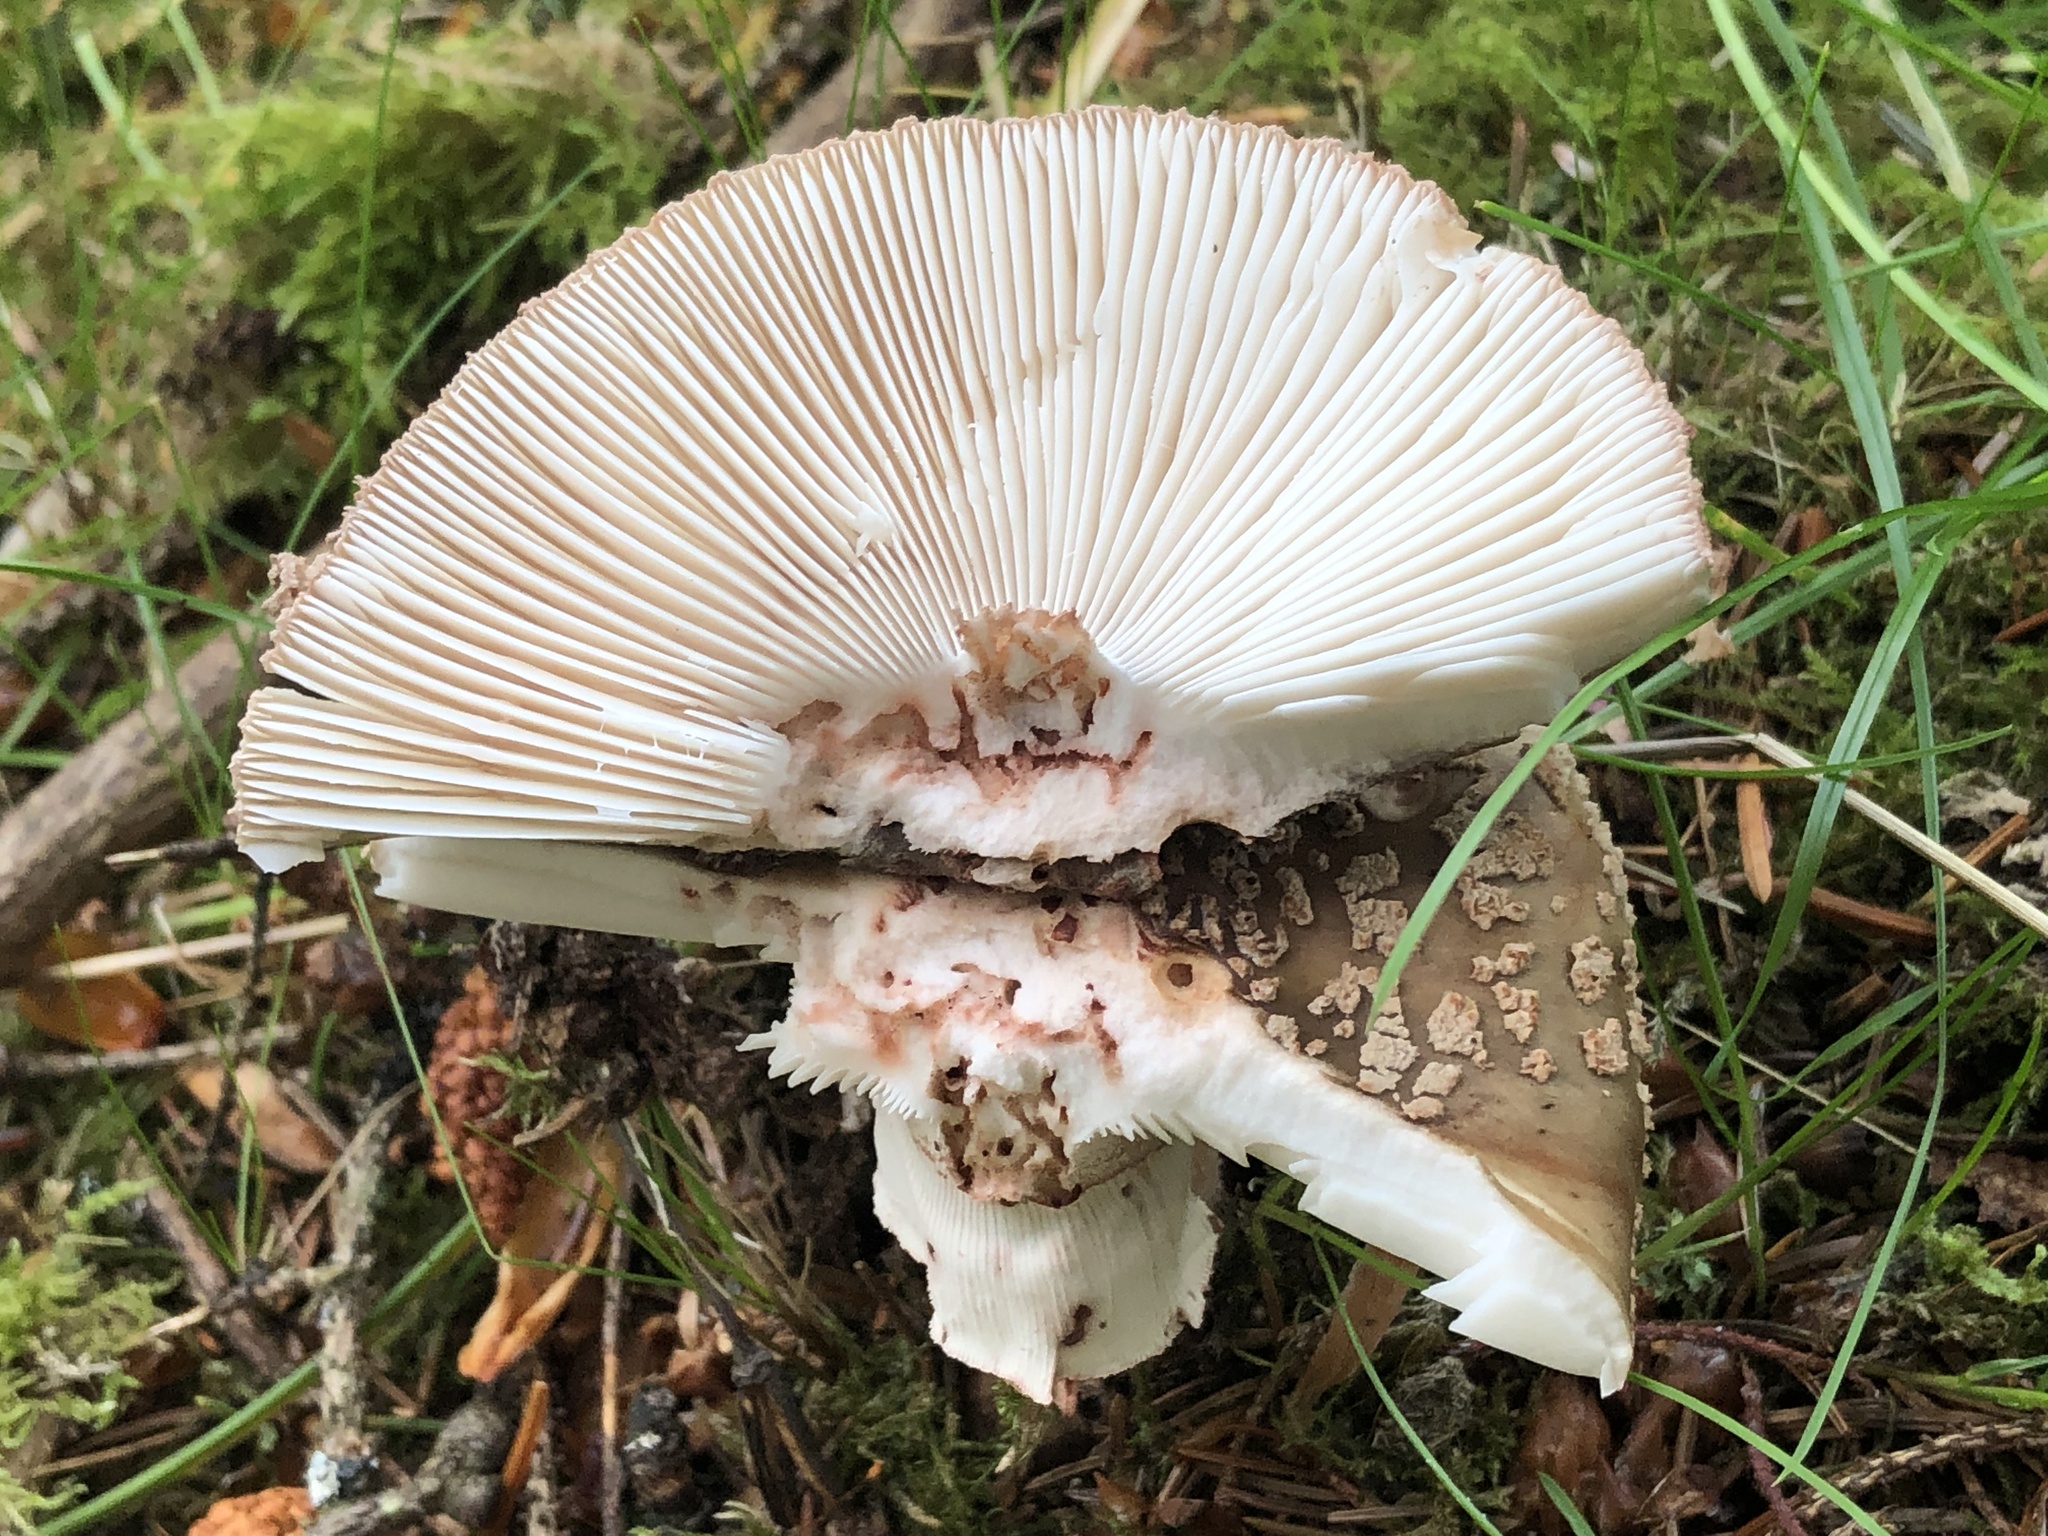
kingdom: Fungi
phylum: Basidiomycota
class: Agaricomycetes
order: Agaricales
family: Amanitaceae
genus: Amanita
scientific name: Amanita rubescens
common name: Blusher
